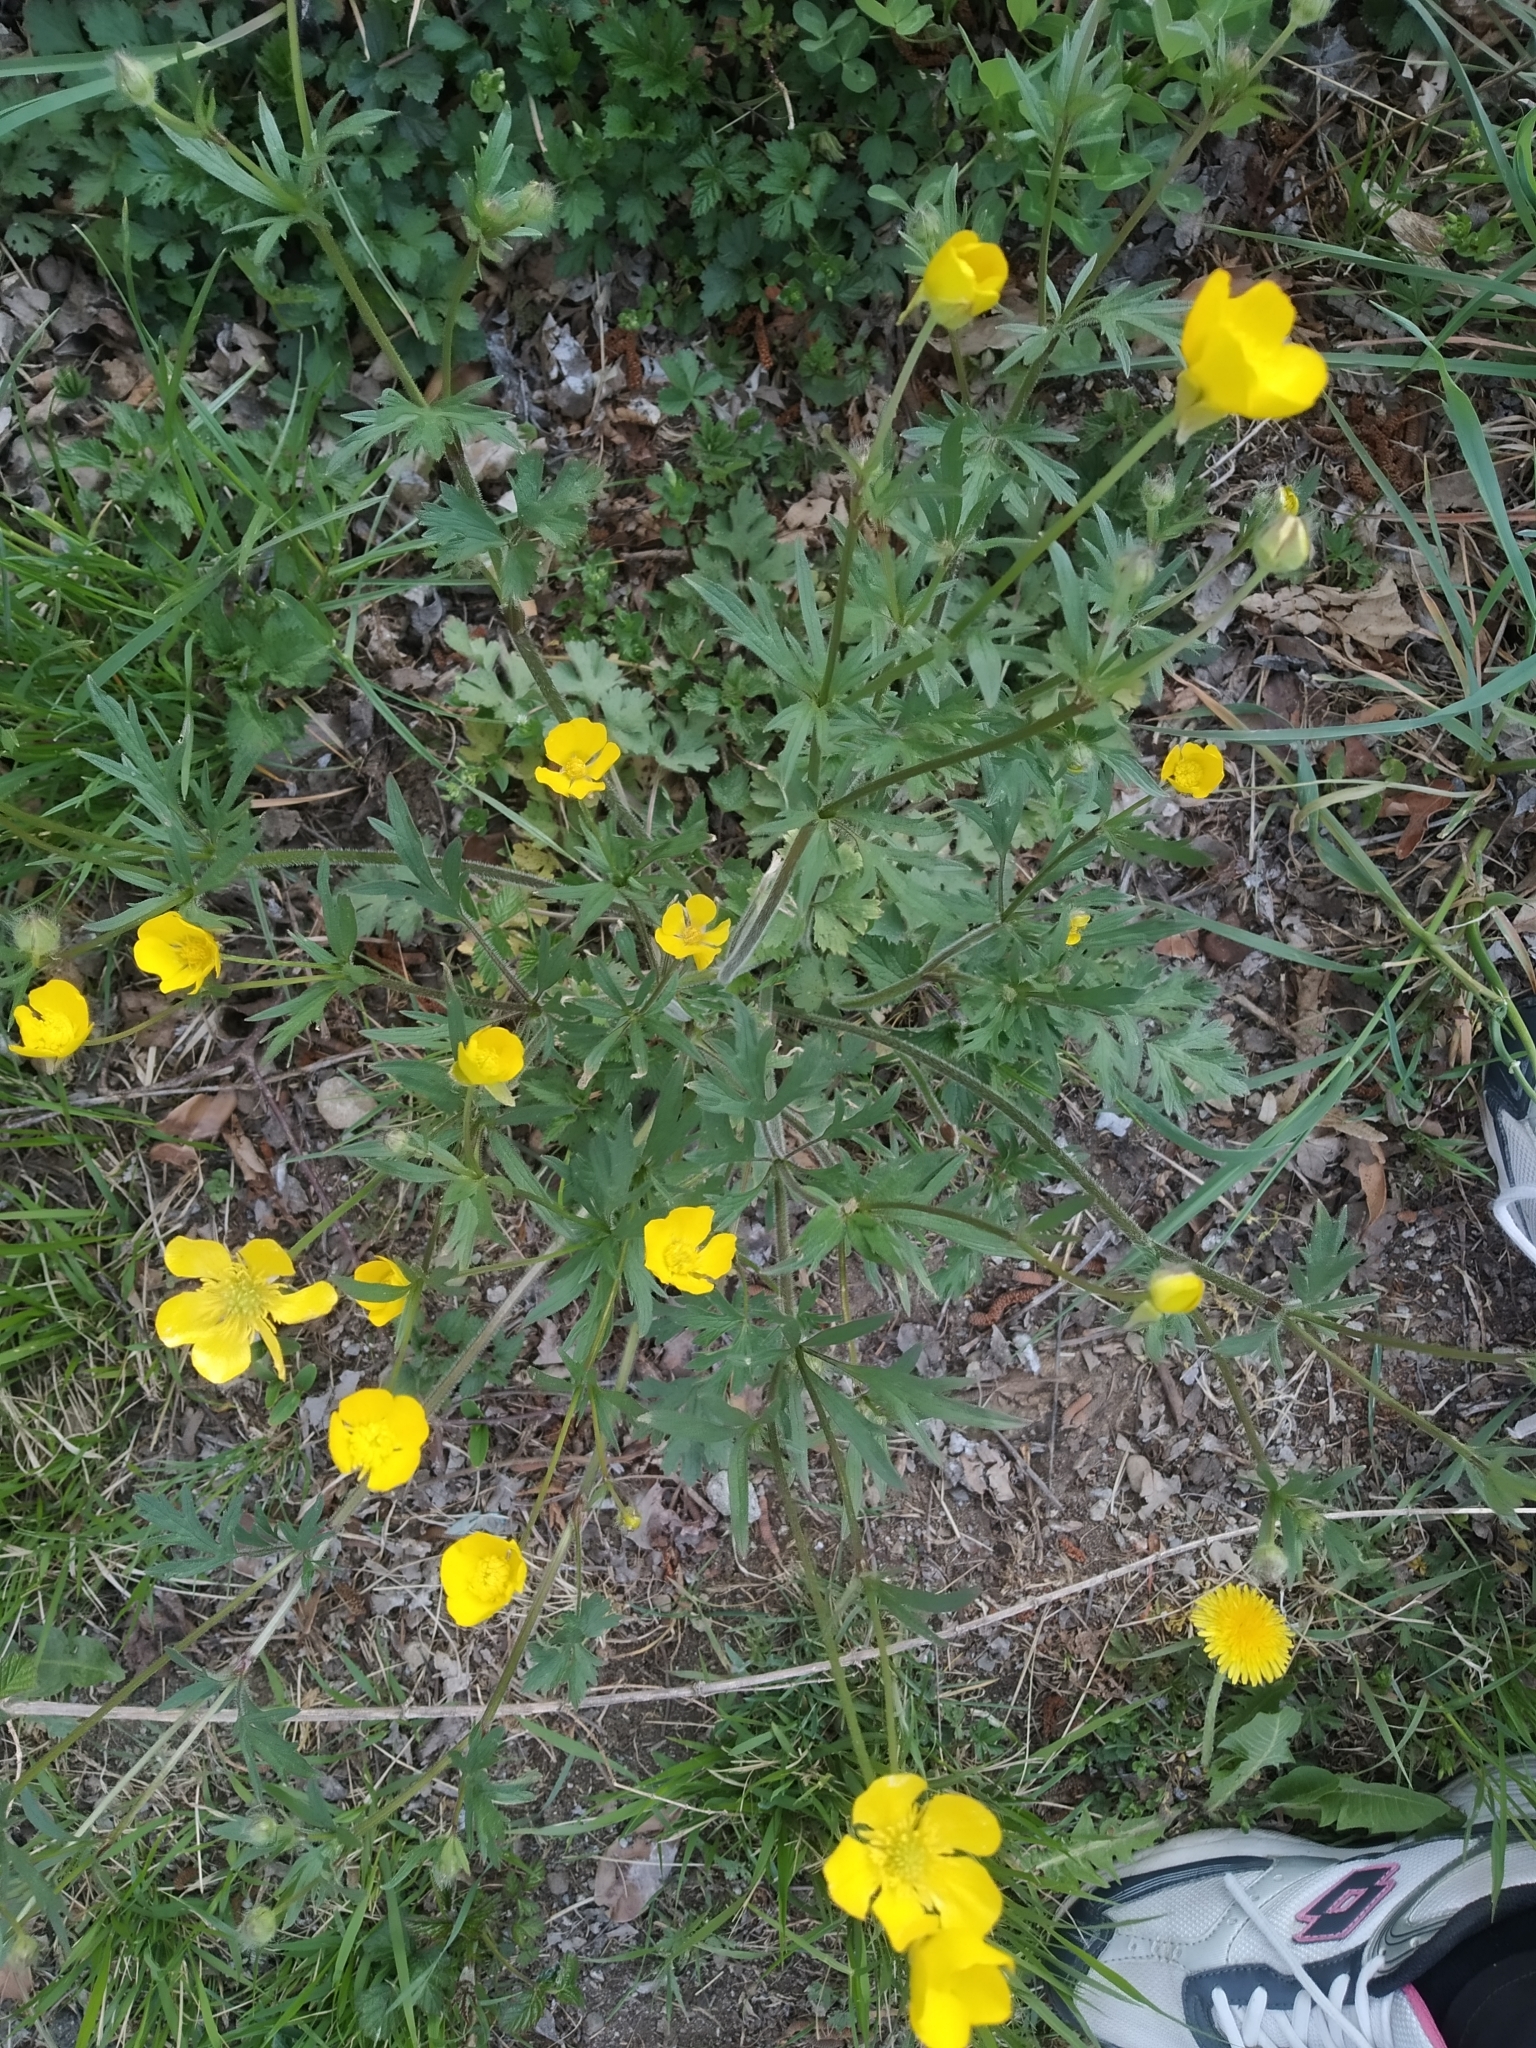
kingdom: Plantae
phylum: Tracheophyta
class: Magnoliopsida
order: Ranunculales
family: Ranunculaceae
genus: Ranunculus
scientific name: Ranunculus bulbosus
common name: Bulbous buttercup
